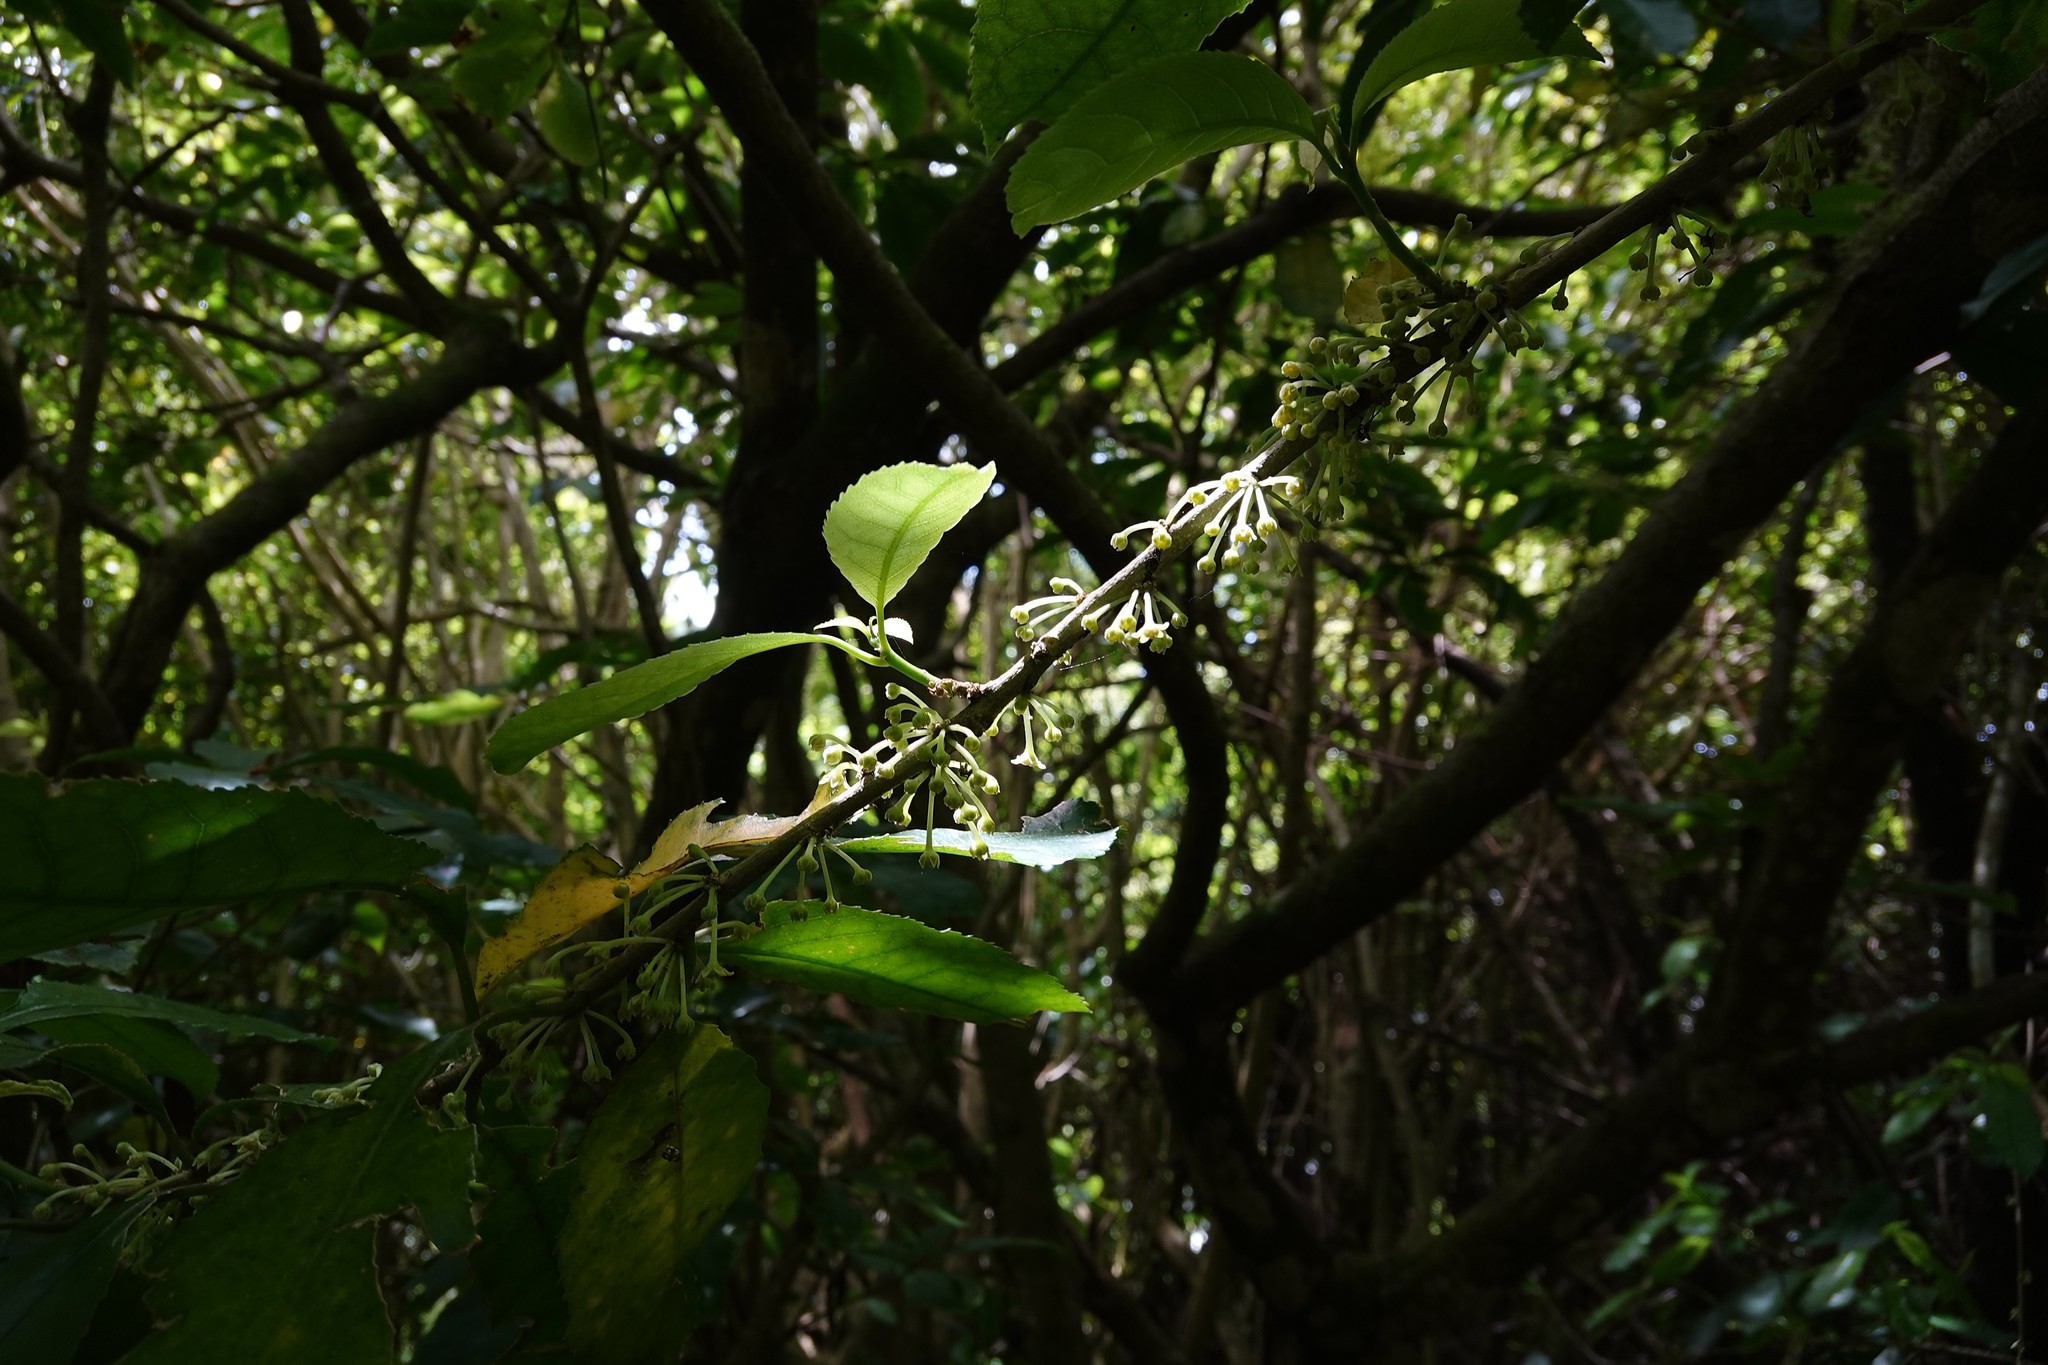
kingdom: Plantae
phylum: Tracheophyta
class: Magnoliopsida
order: Malpighiales
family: Violaceae
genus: Melicytus
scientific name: Melicytus ramiflorus
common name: Mahoe
